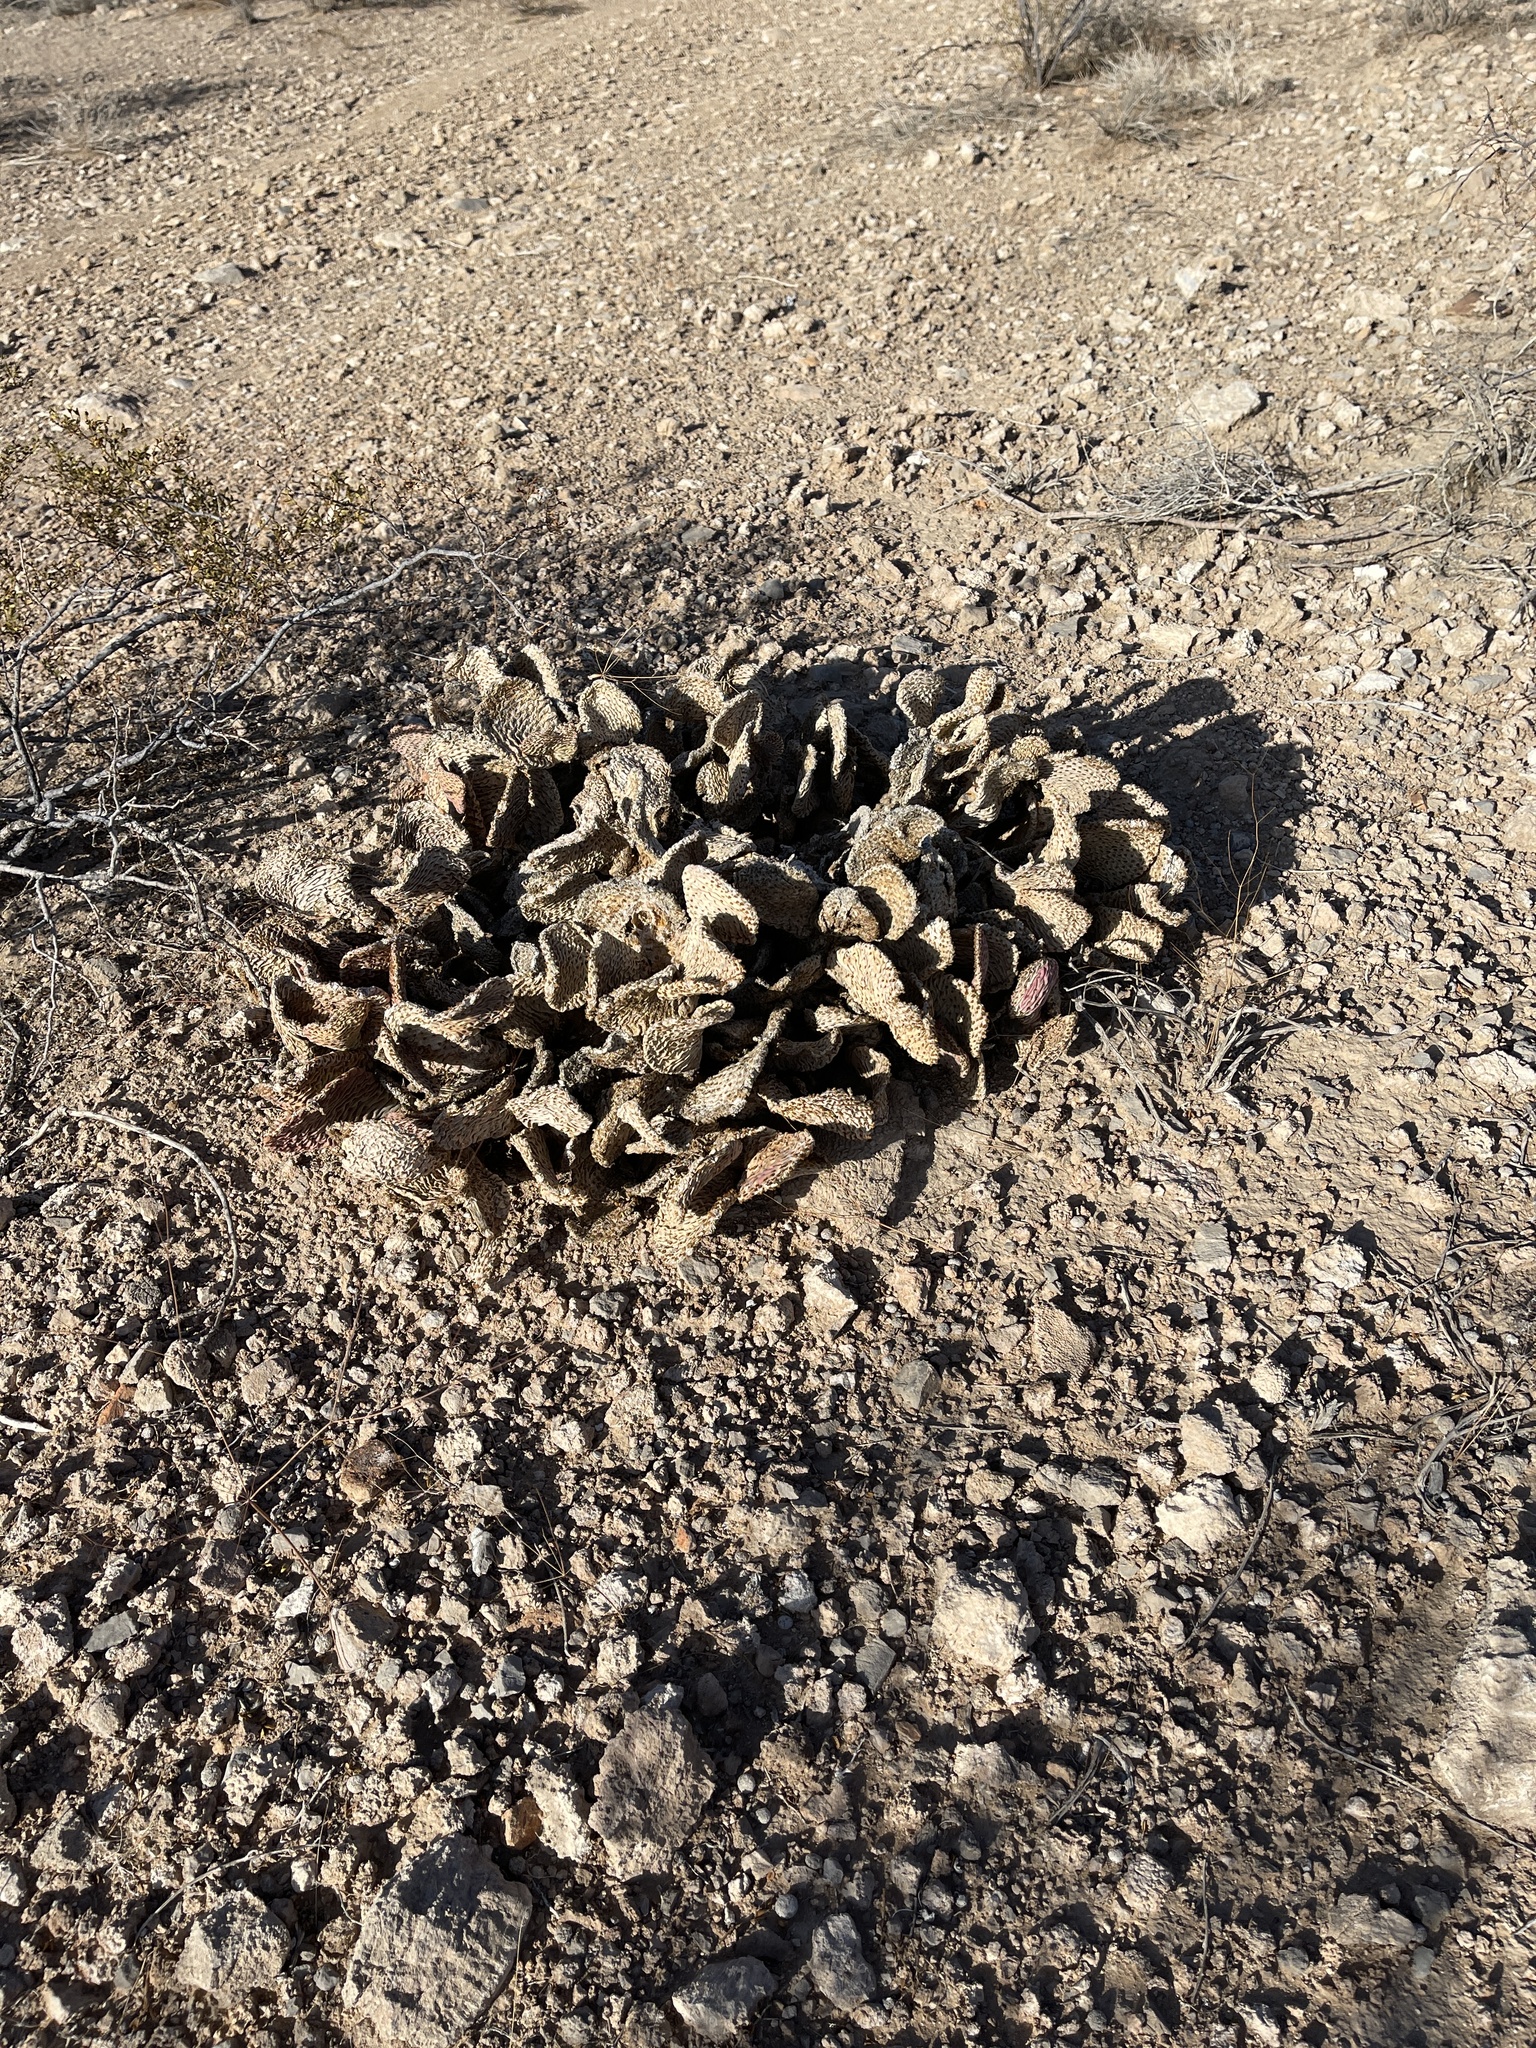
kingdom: Plantae
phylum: Tracheophyta
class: Magnoliopsida
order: Caryophyllales
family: Cactaceae
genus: Opuntia
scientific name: Opuntia basilaris
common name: Beavertail prickly-pear
